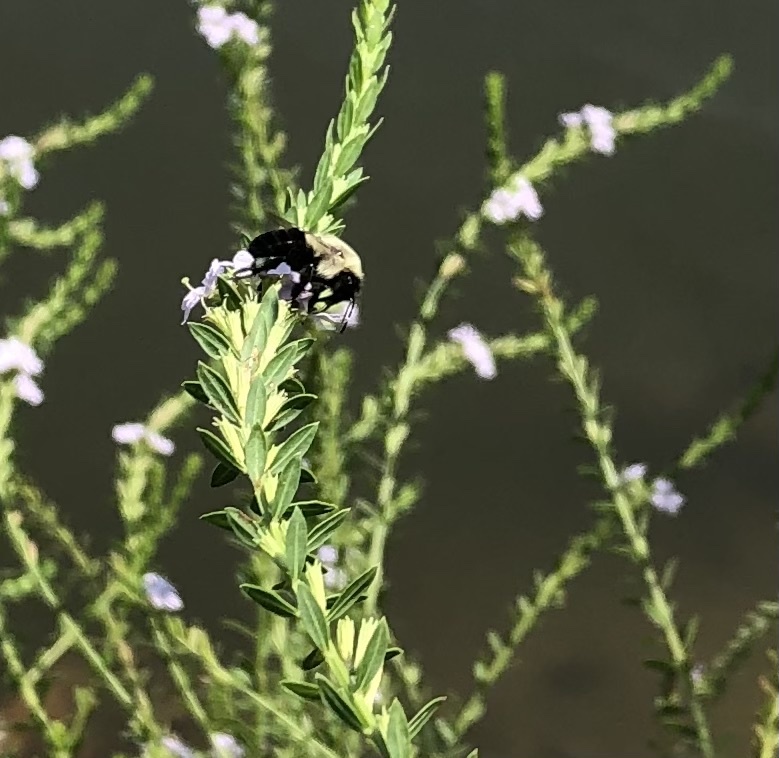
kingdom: Animalia
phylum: Arthropoda
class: Insecta
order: Hymenoptera
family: Apidae
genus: Bombus
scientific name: Bombus impatiens
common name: Common eastern bumble bee
